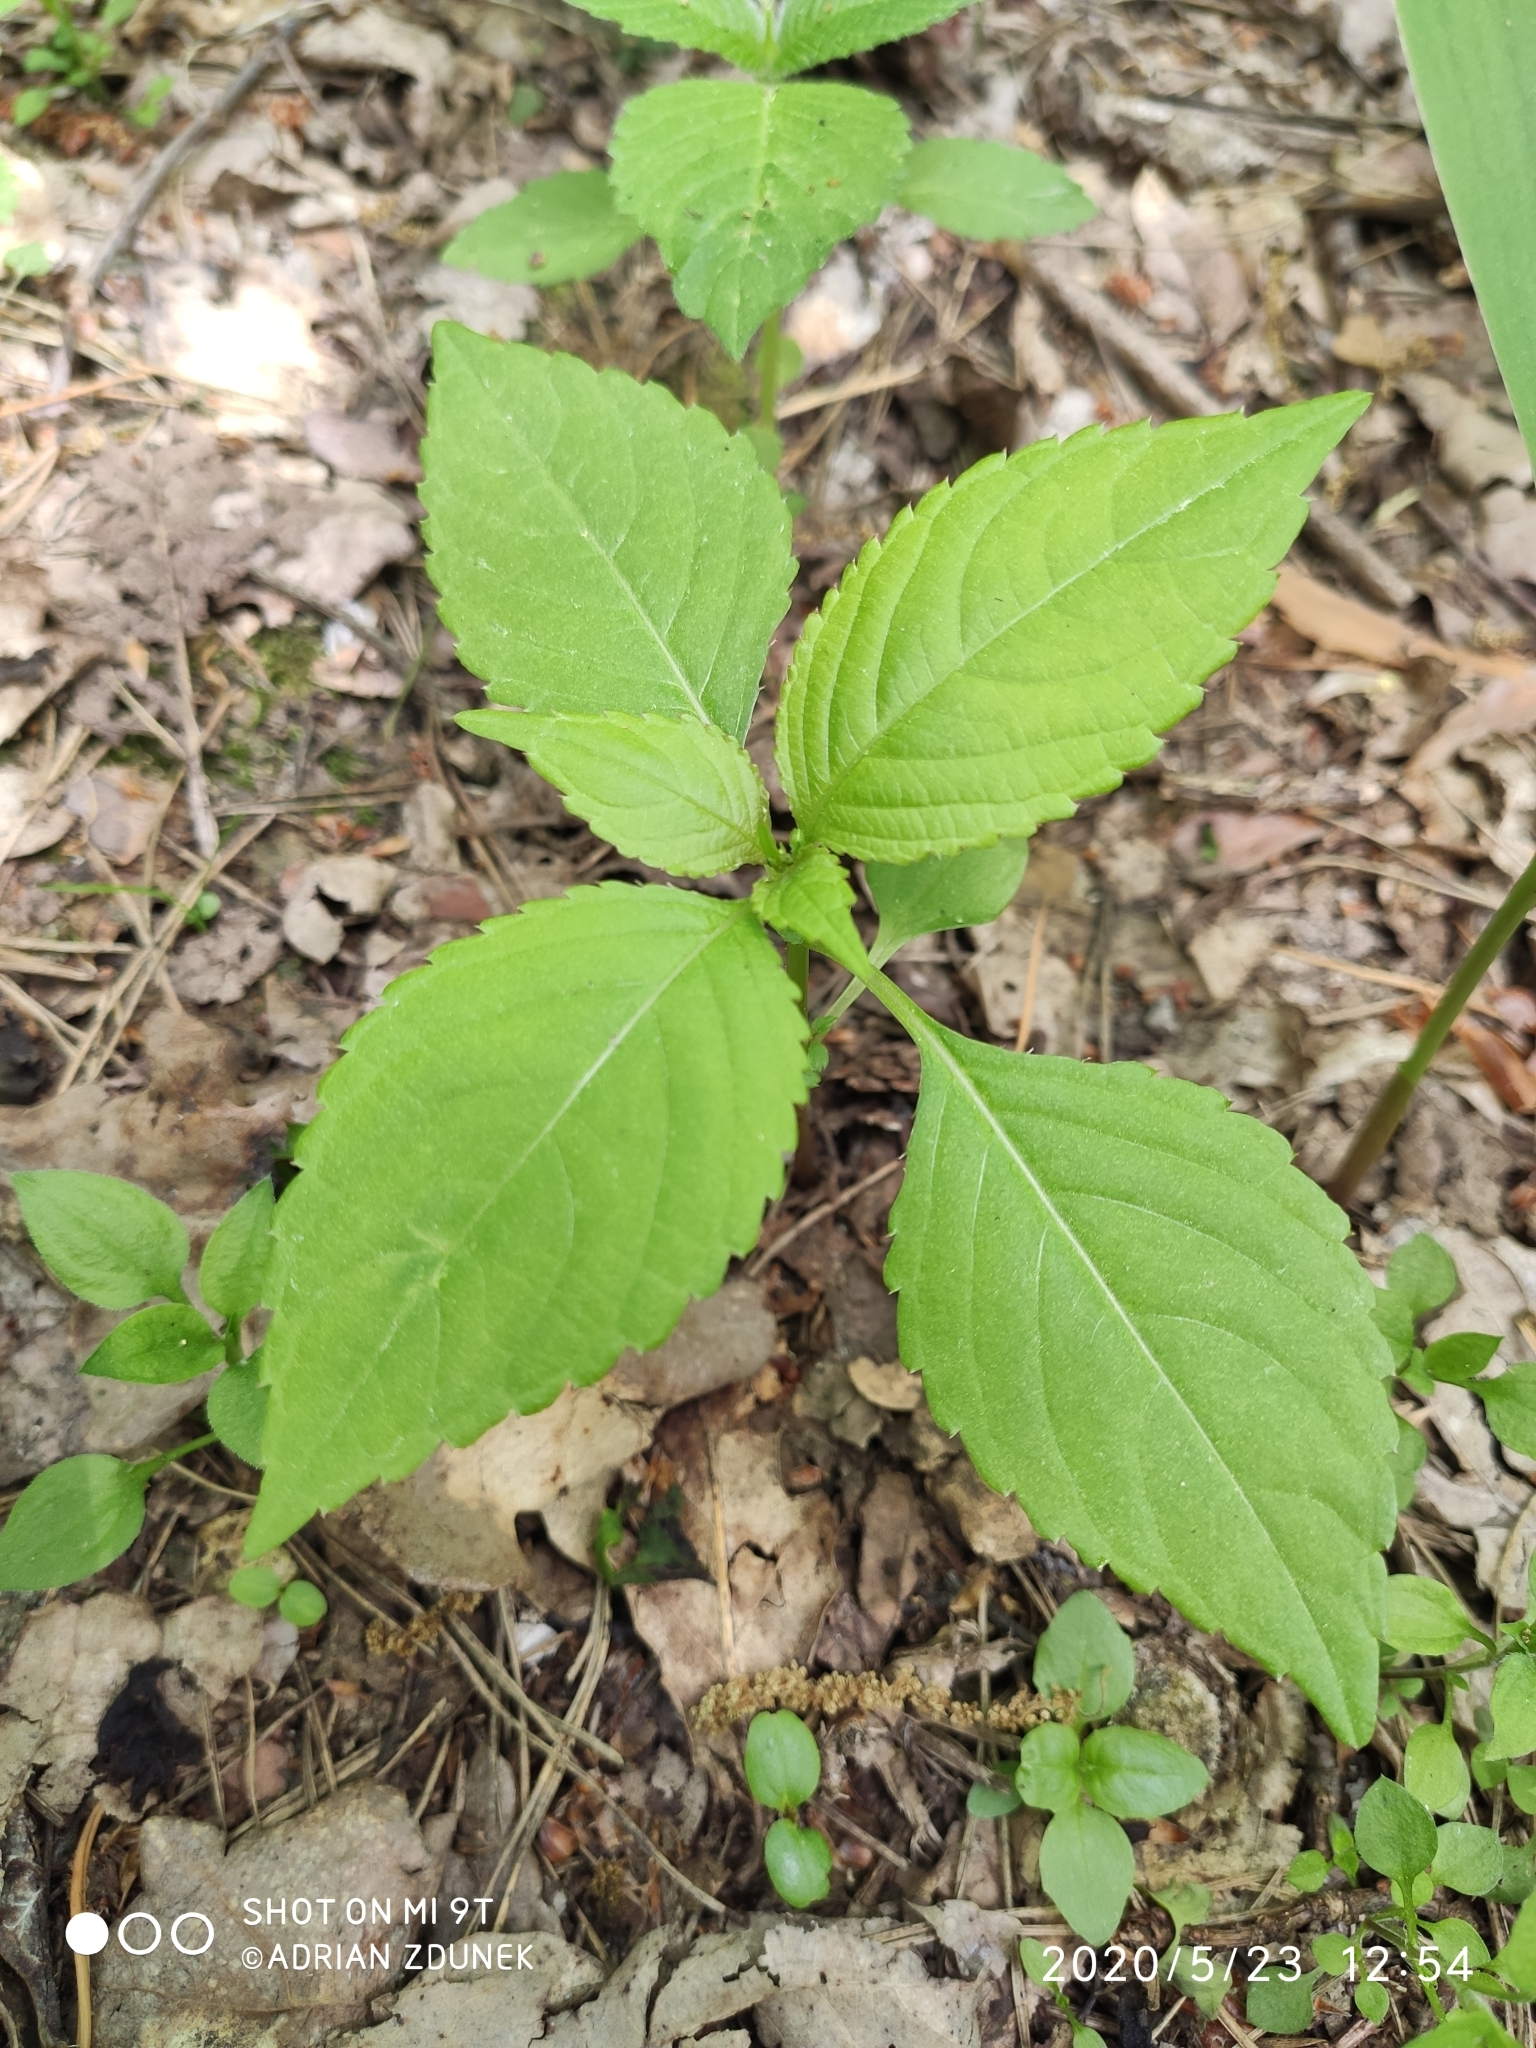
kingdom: Plantae
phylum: Tracheophyta
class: Magnoliopsida
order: Ericales
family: Balsaminaceae
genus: Impatiens
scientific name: Impatiens parviflora
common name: Small balsam
